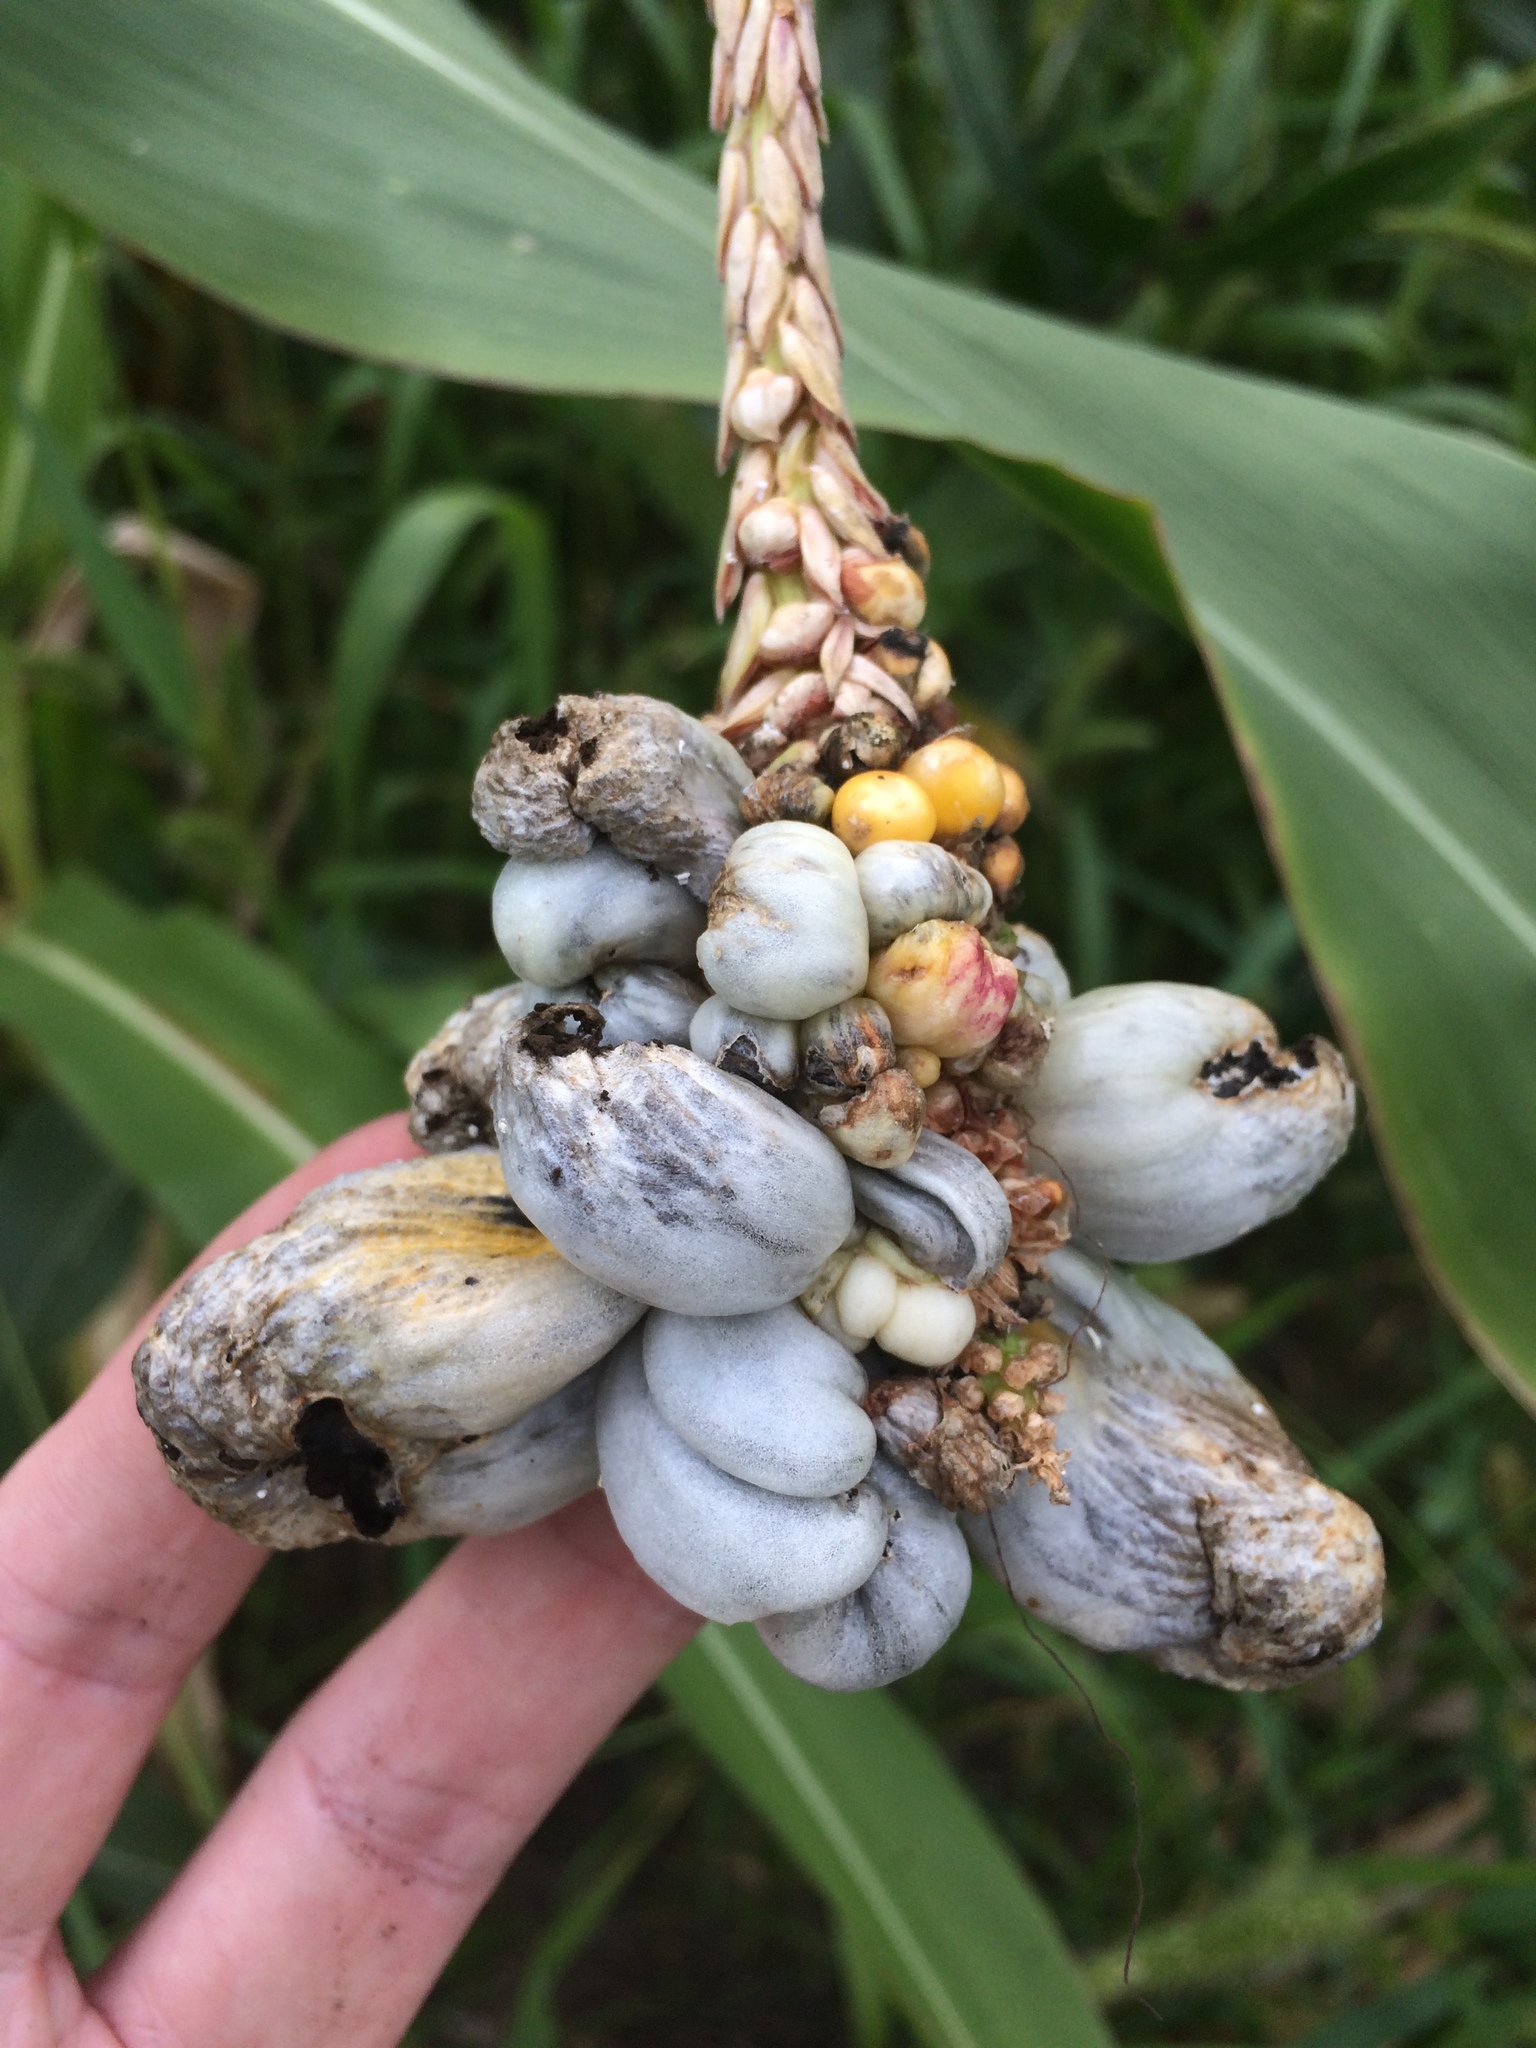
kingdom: Fungi
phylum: Basidiomycota
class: Ustilaginomycetes
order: Ustilaginales
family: Ustilaginaceae
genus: Mycosarcoma
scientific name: Mycosarcoma maydis
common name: Corn smut
